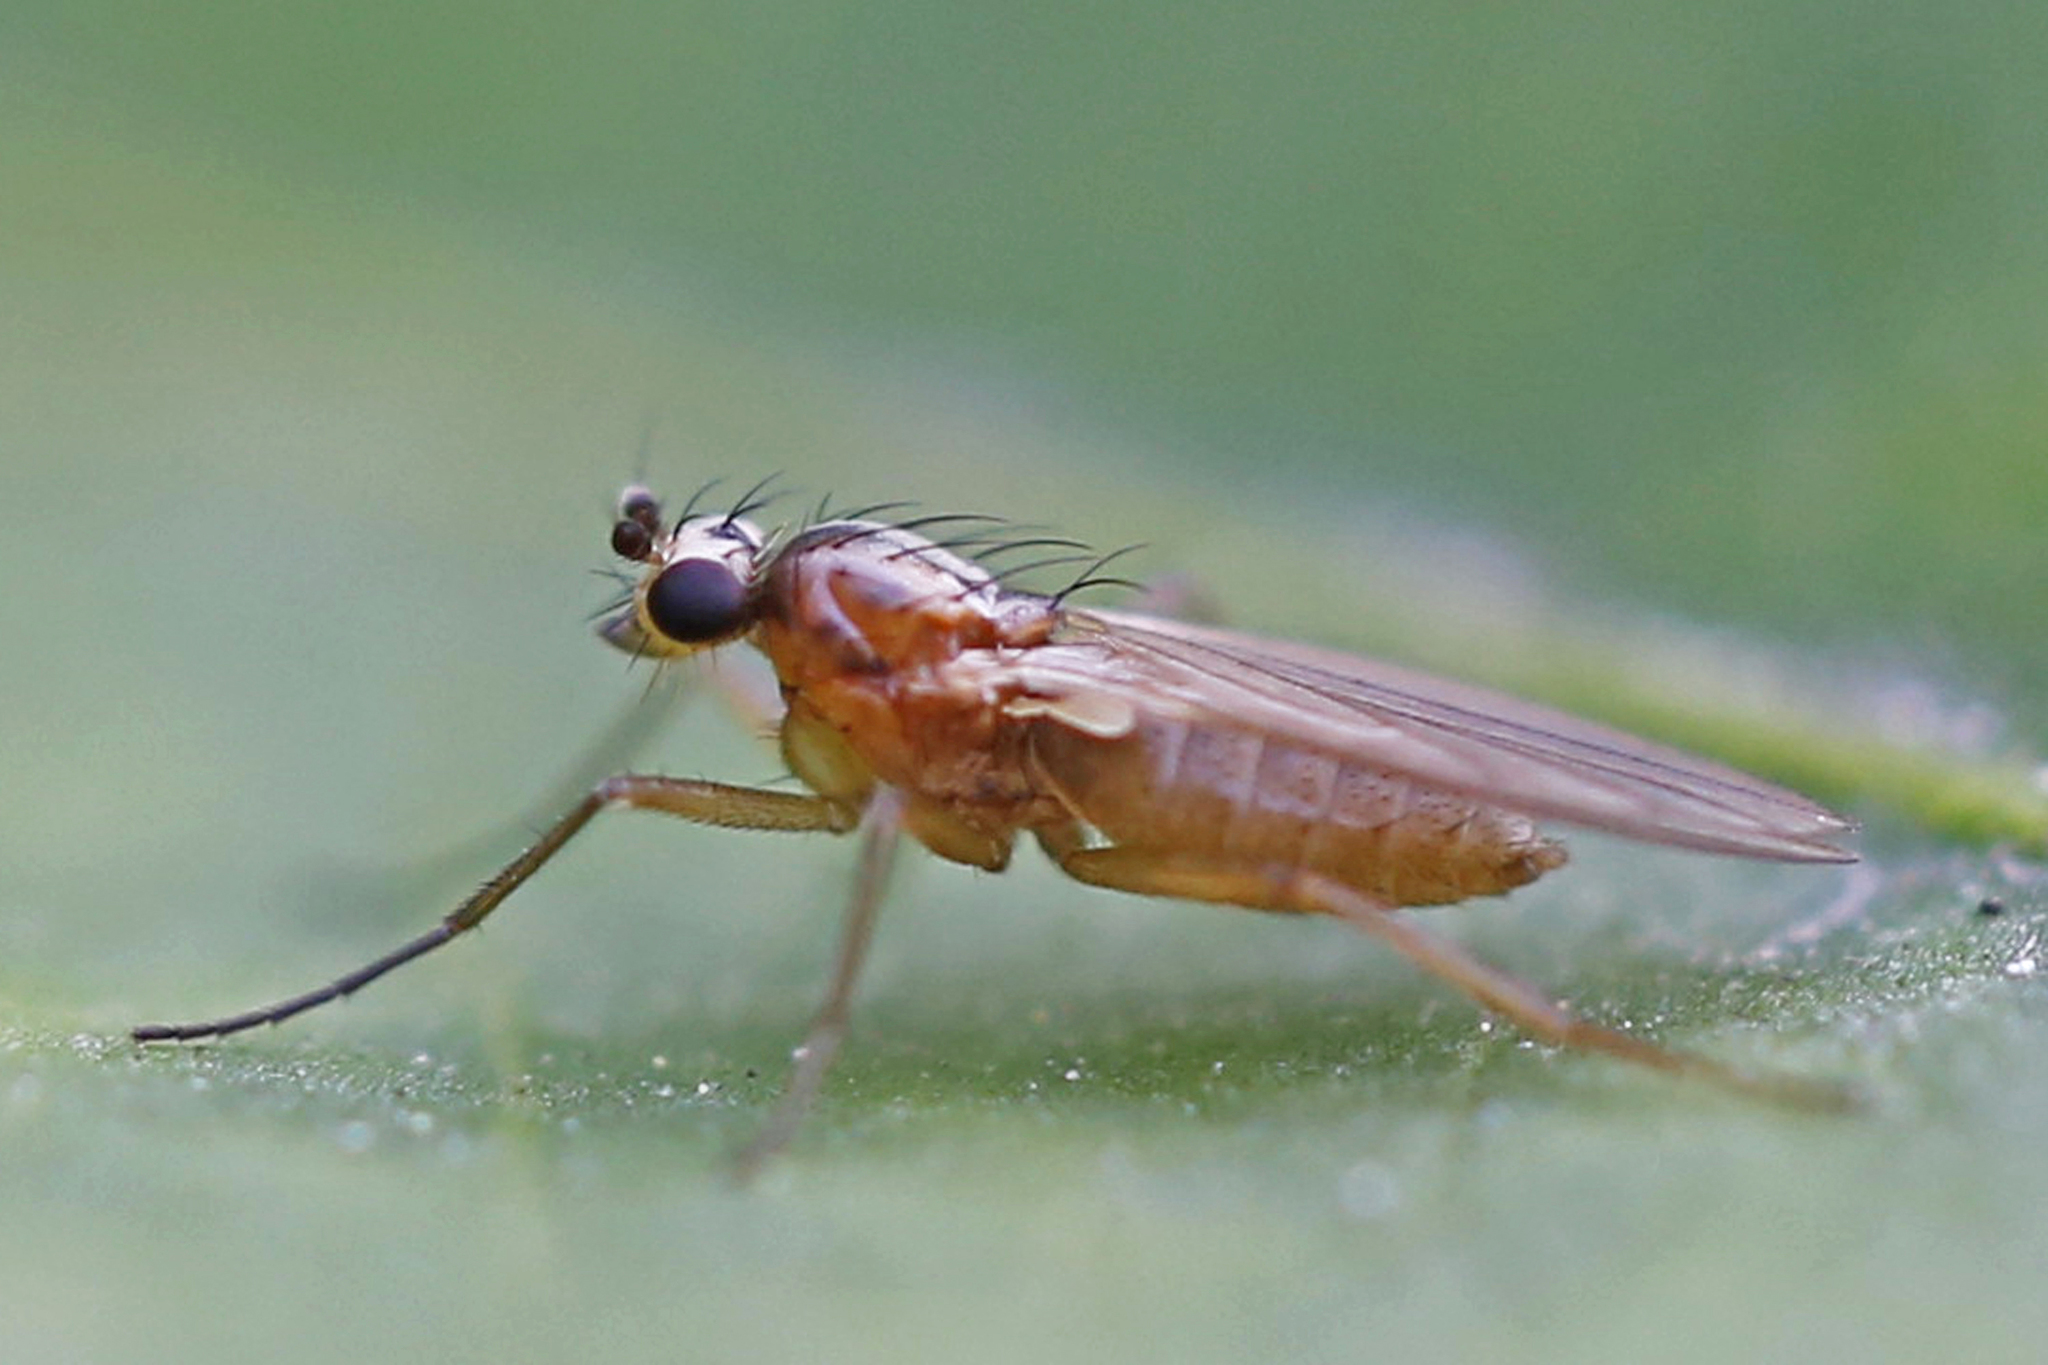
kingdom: Animalia
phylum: Arthropoda
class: Insecta
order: Diptera
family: Lonchopteridae
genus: Lonchoptera
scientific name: Lonchoptera bifurcata
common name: Spear-winged fly
